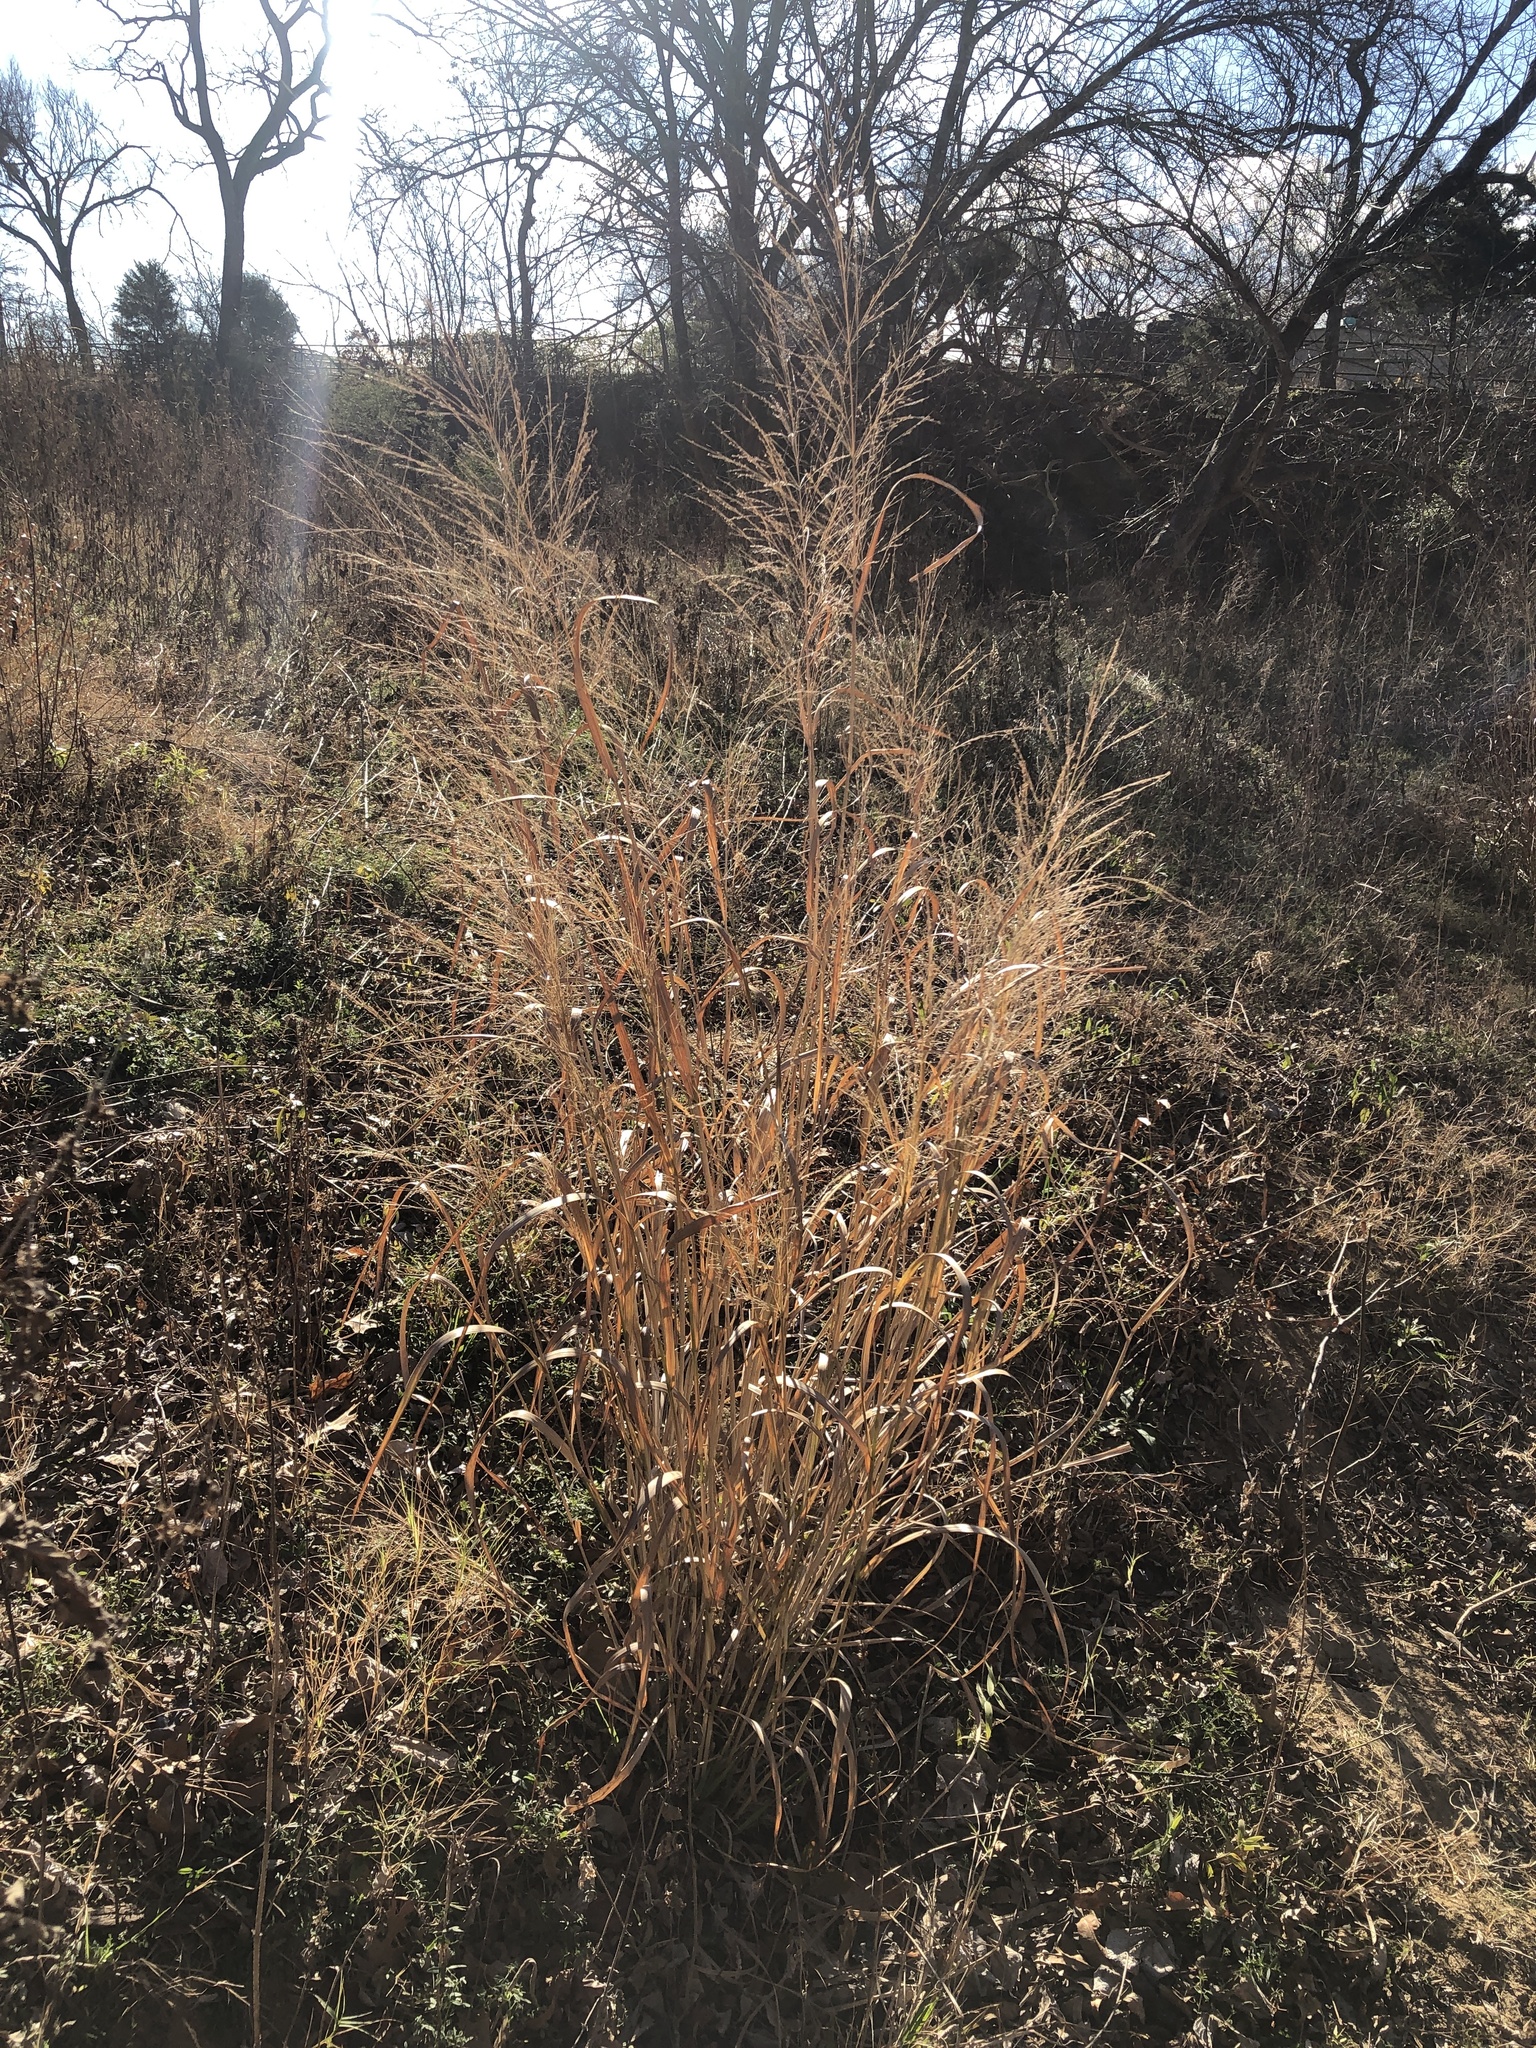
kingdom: Plantae
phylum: Tracheophyta
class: Liliopsida
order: Poales
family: Poaceae
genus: Panicum
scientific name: Panicum virgatum
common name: Switchgrass
